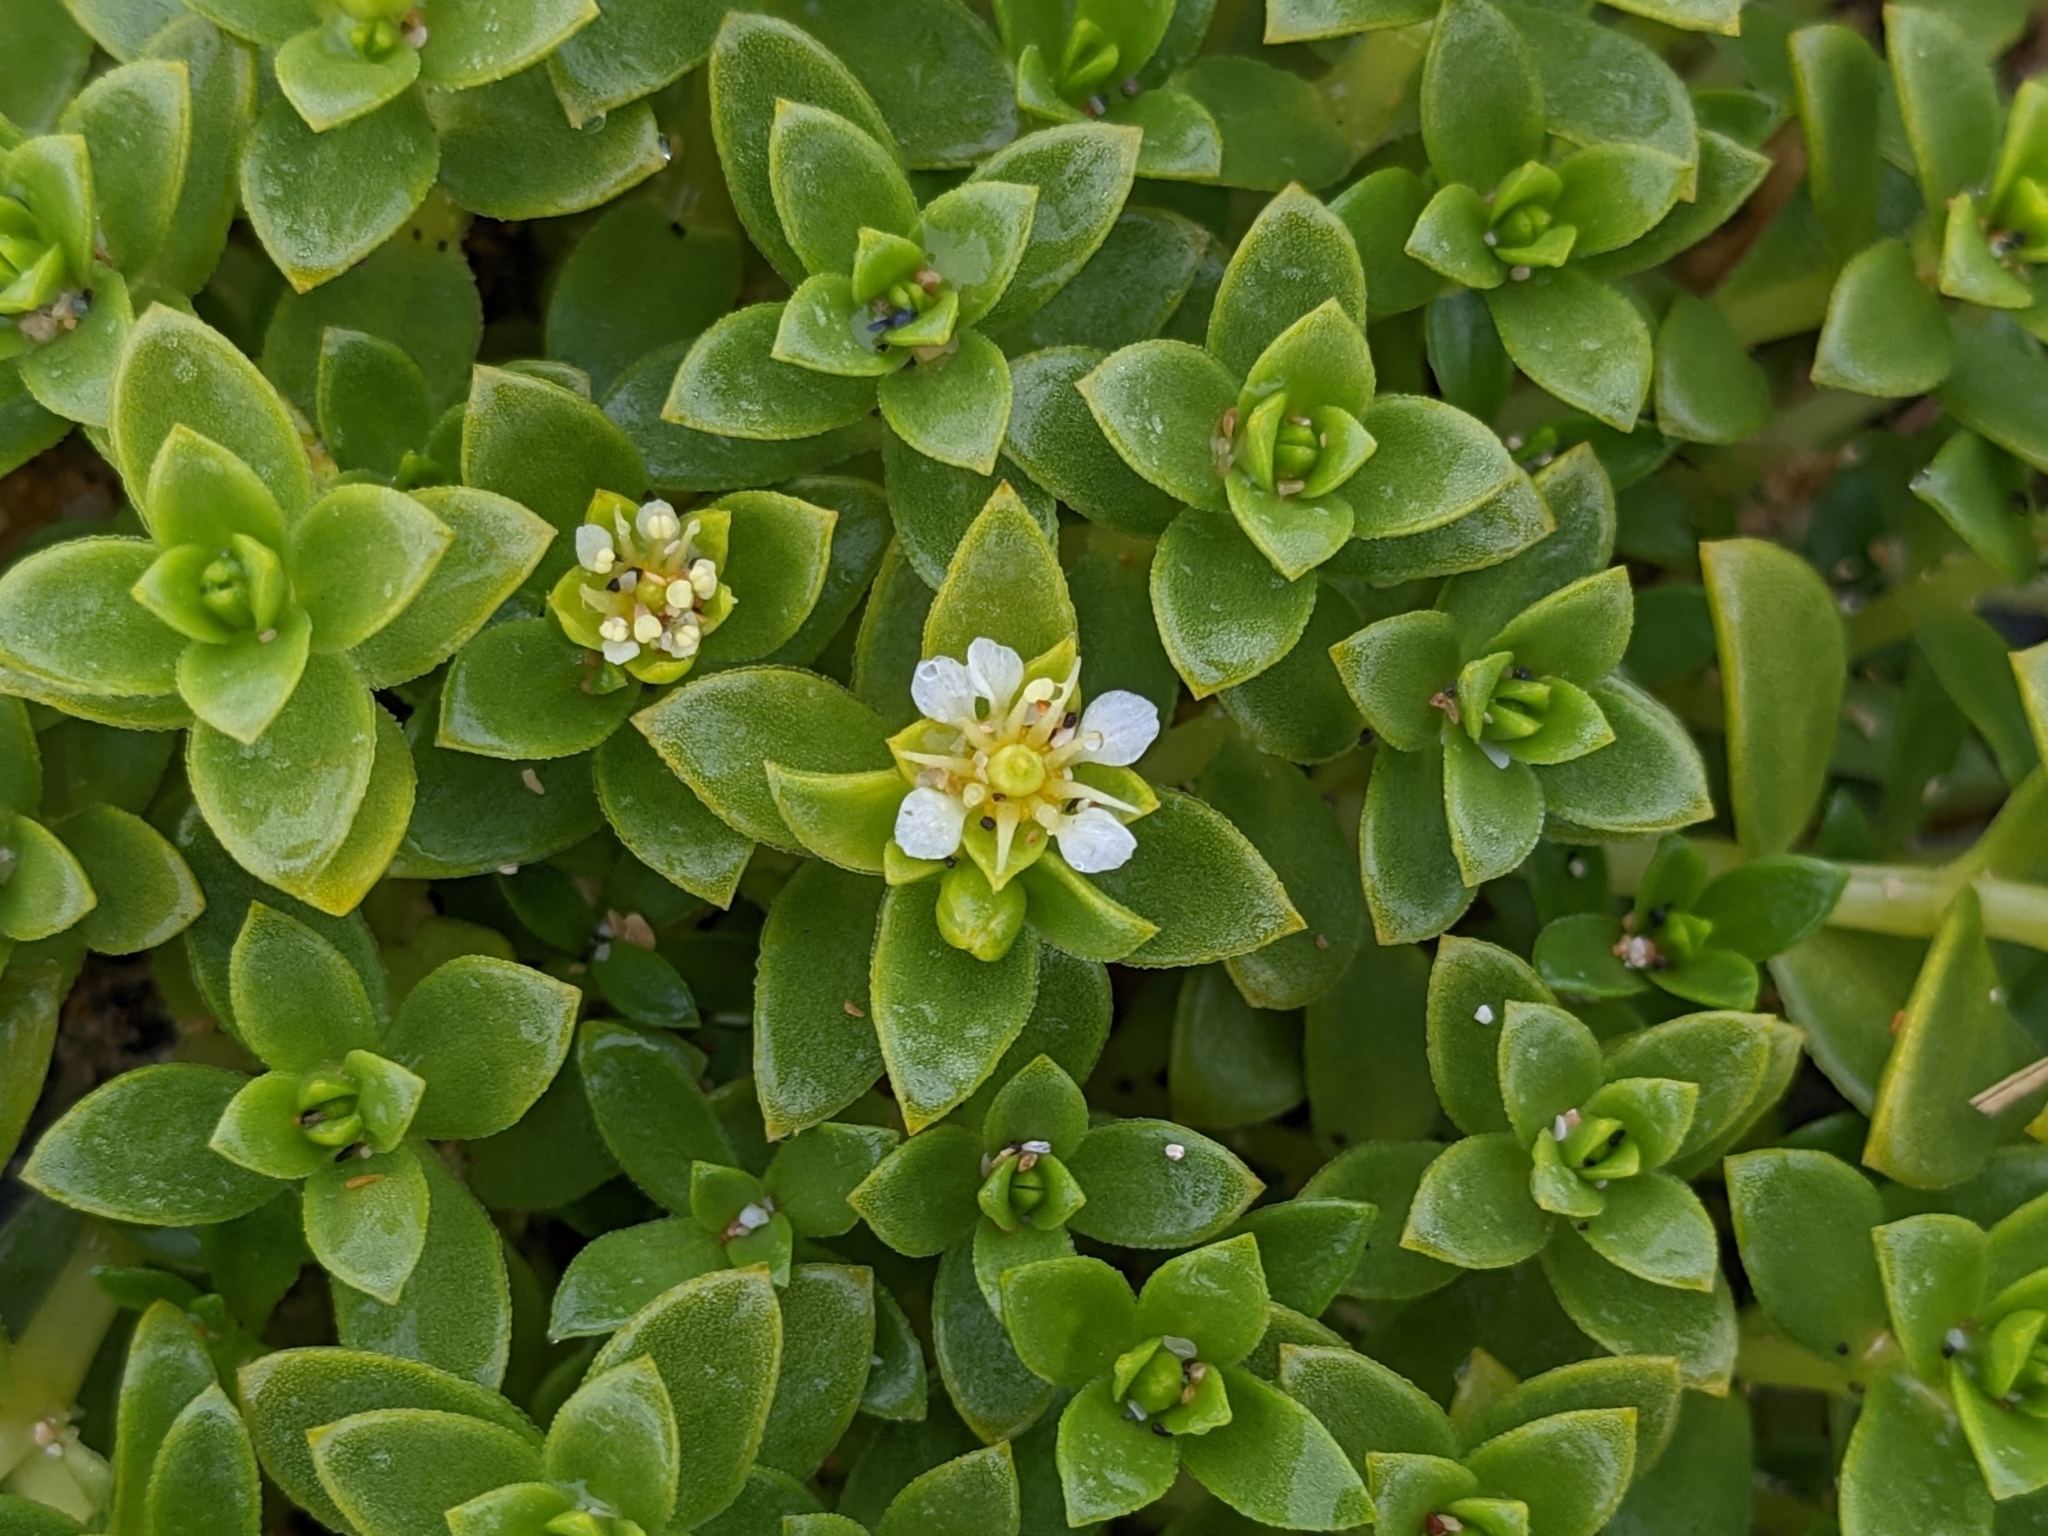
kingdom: Plantae
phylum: Tracheophyta
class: Magnoliopsida
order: Caryophyllales
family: Caryophyllaceae
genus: Honckenya
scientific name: Honckenya peploides
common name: Sea sandwort
